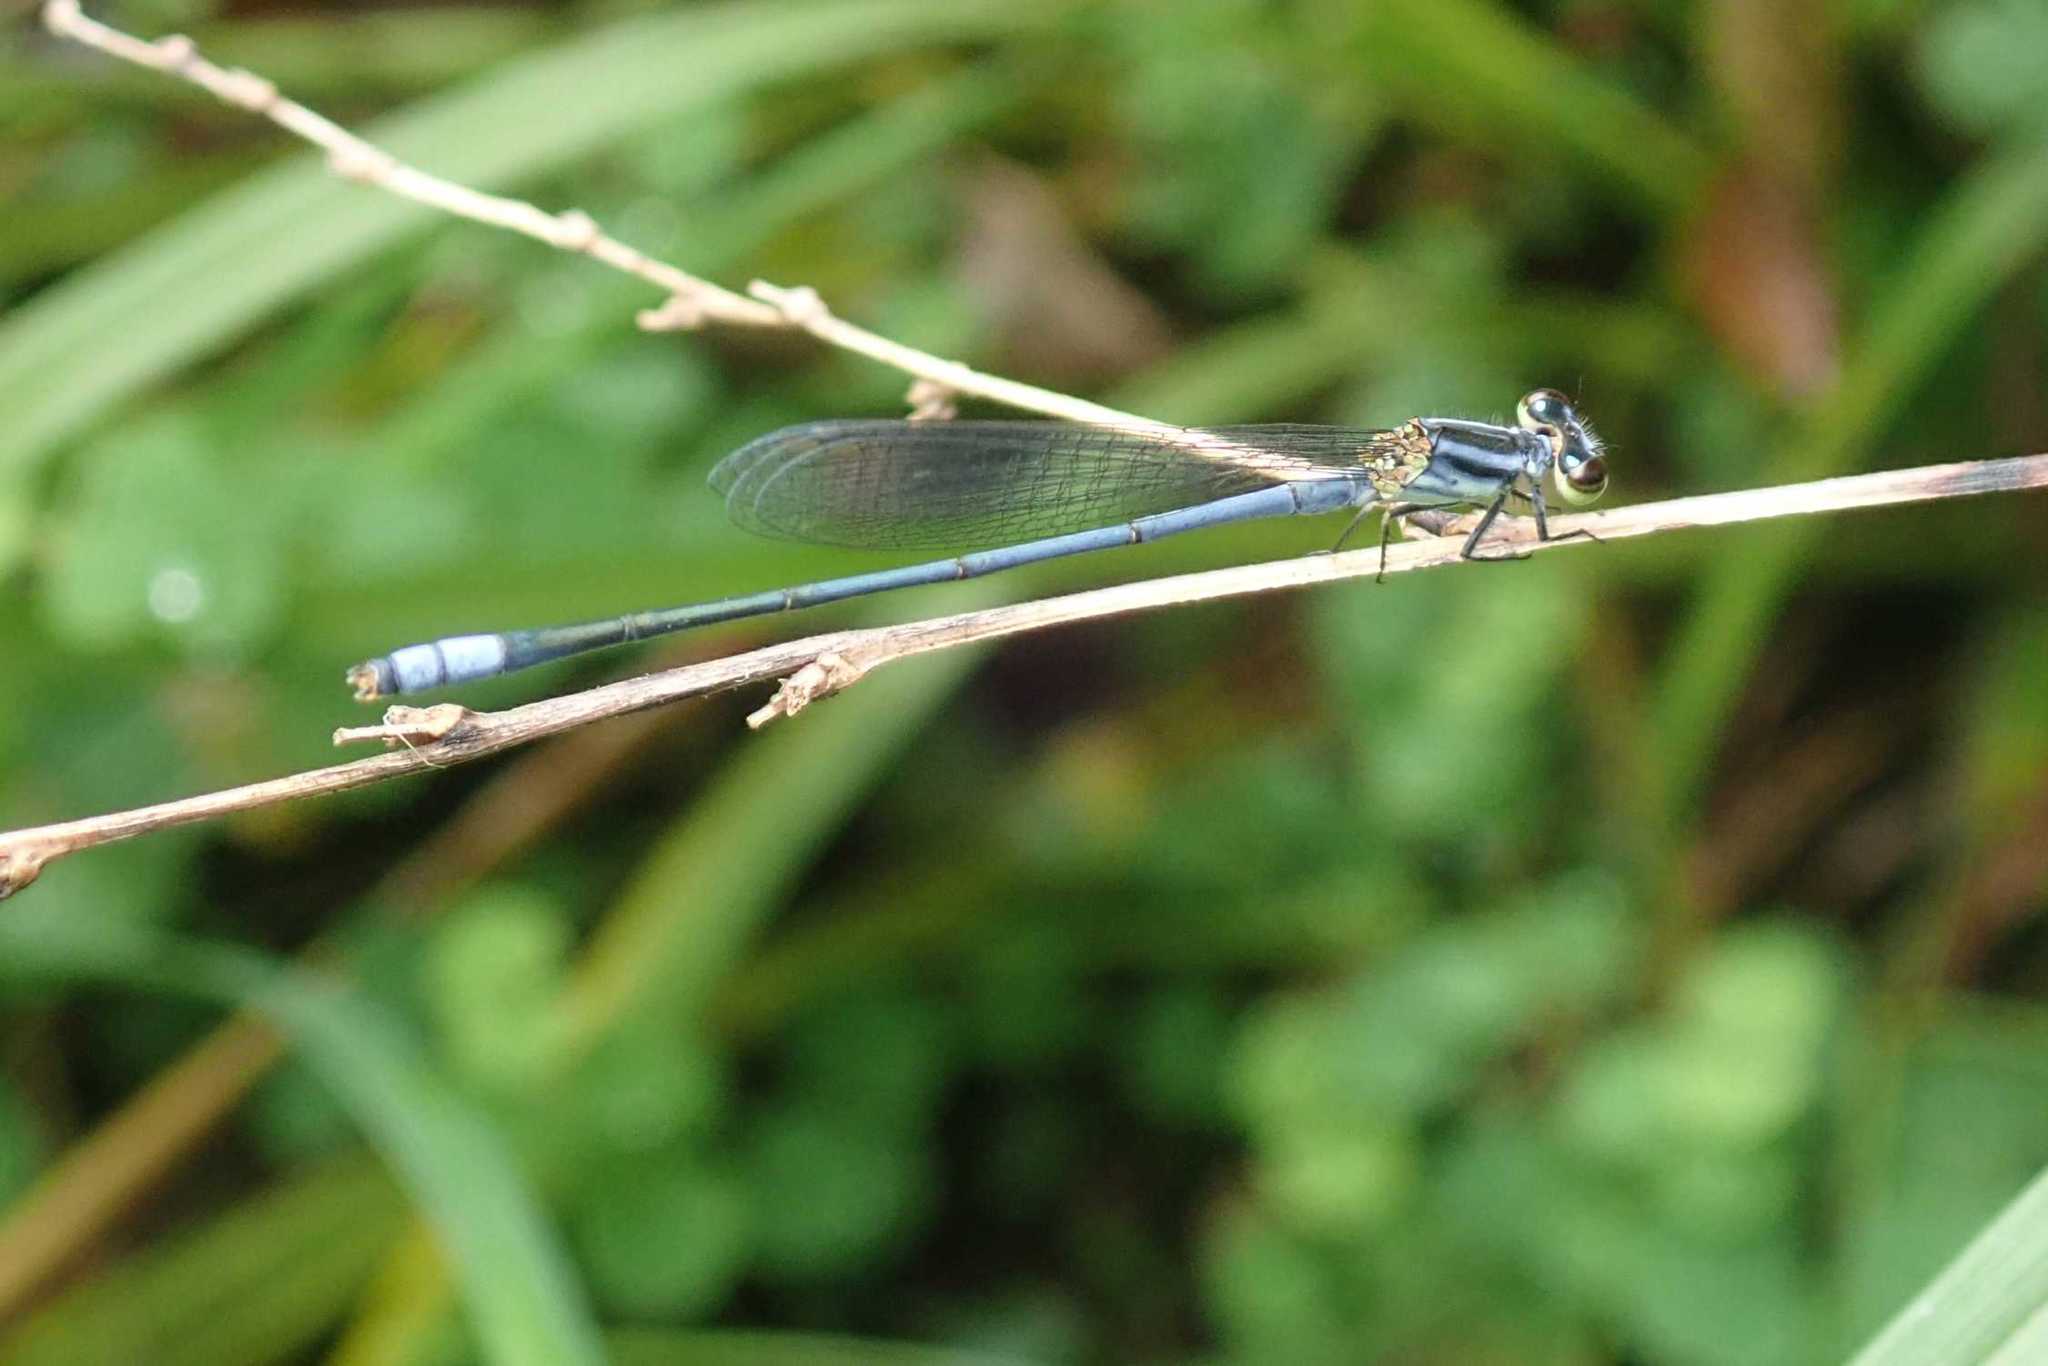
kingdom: Animalia
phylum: Arthropoda
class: Insecta
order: Odonata
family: Coenagrionidae
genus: Pseudagrion
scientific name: Pseudagrion kersteni
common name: Powder-faced sprite
